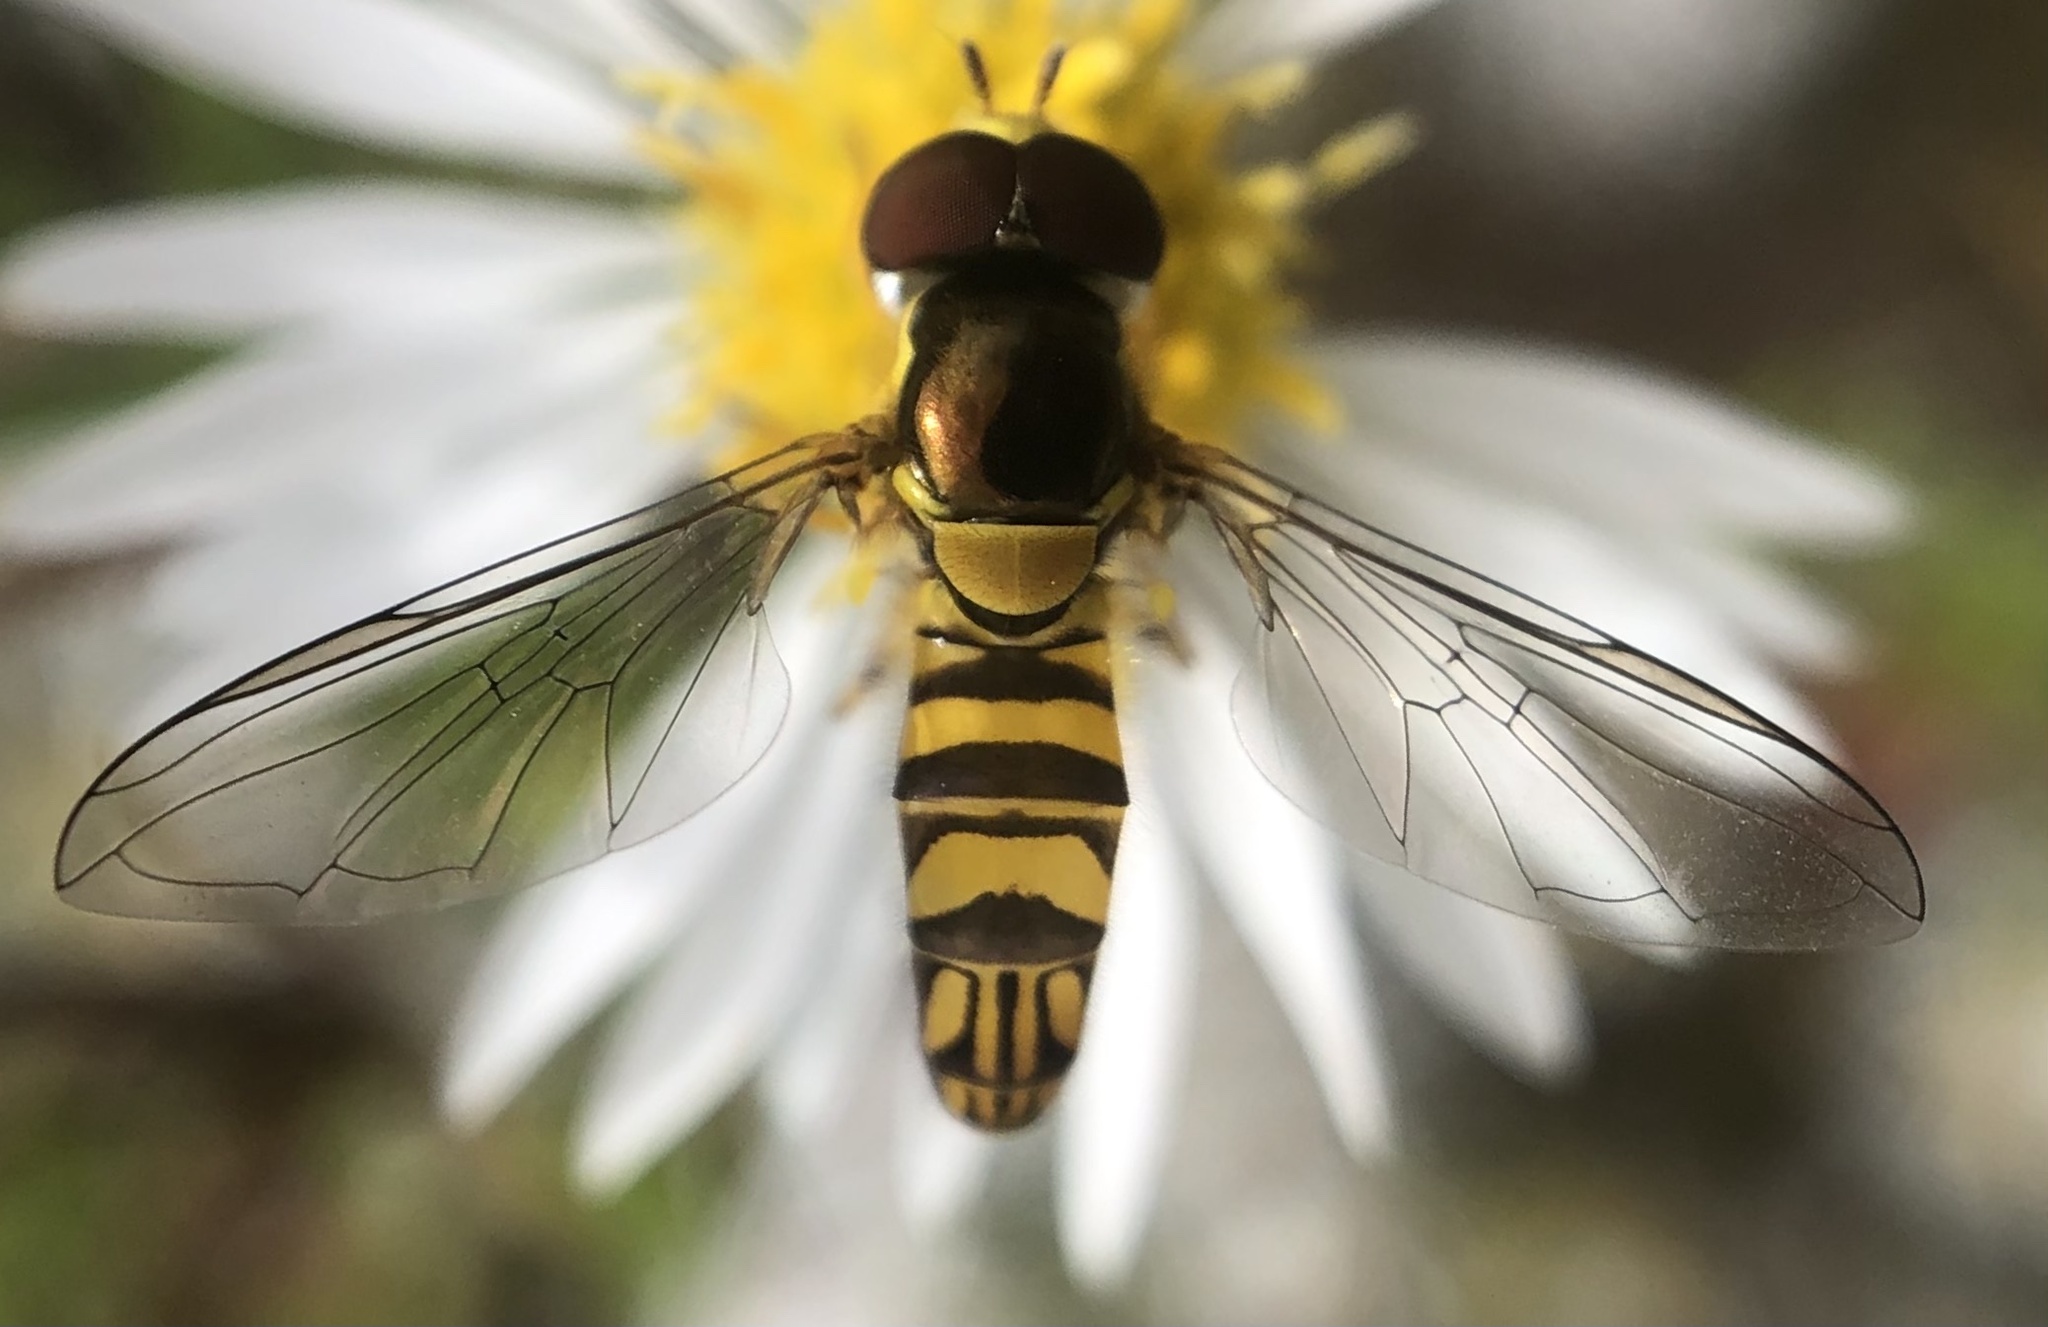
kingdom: Animalia
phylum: Arthropoda
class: Insecta
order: Diptera
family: Syrphidae
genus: Allograpta
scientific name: Allograpta obliqua
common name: Common oblique syrphid
